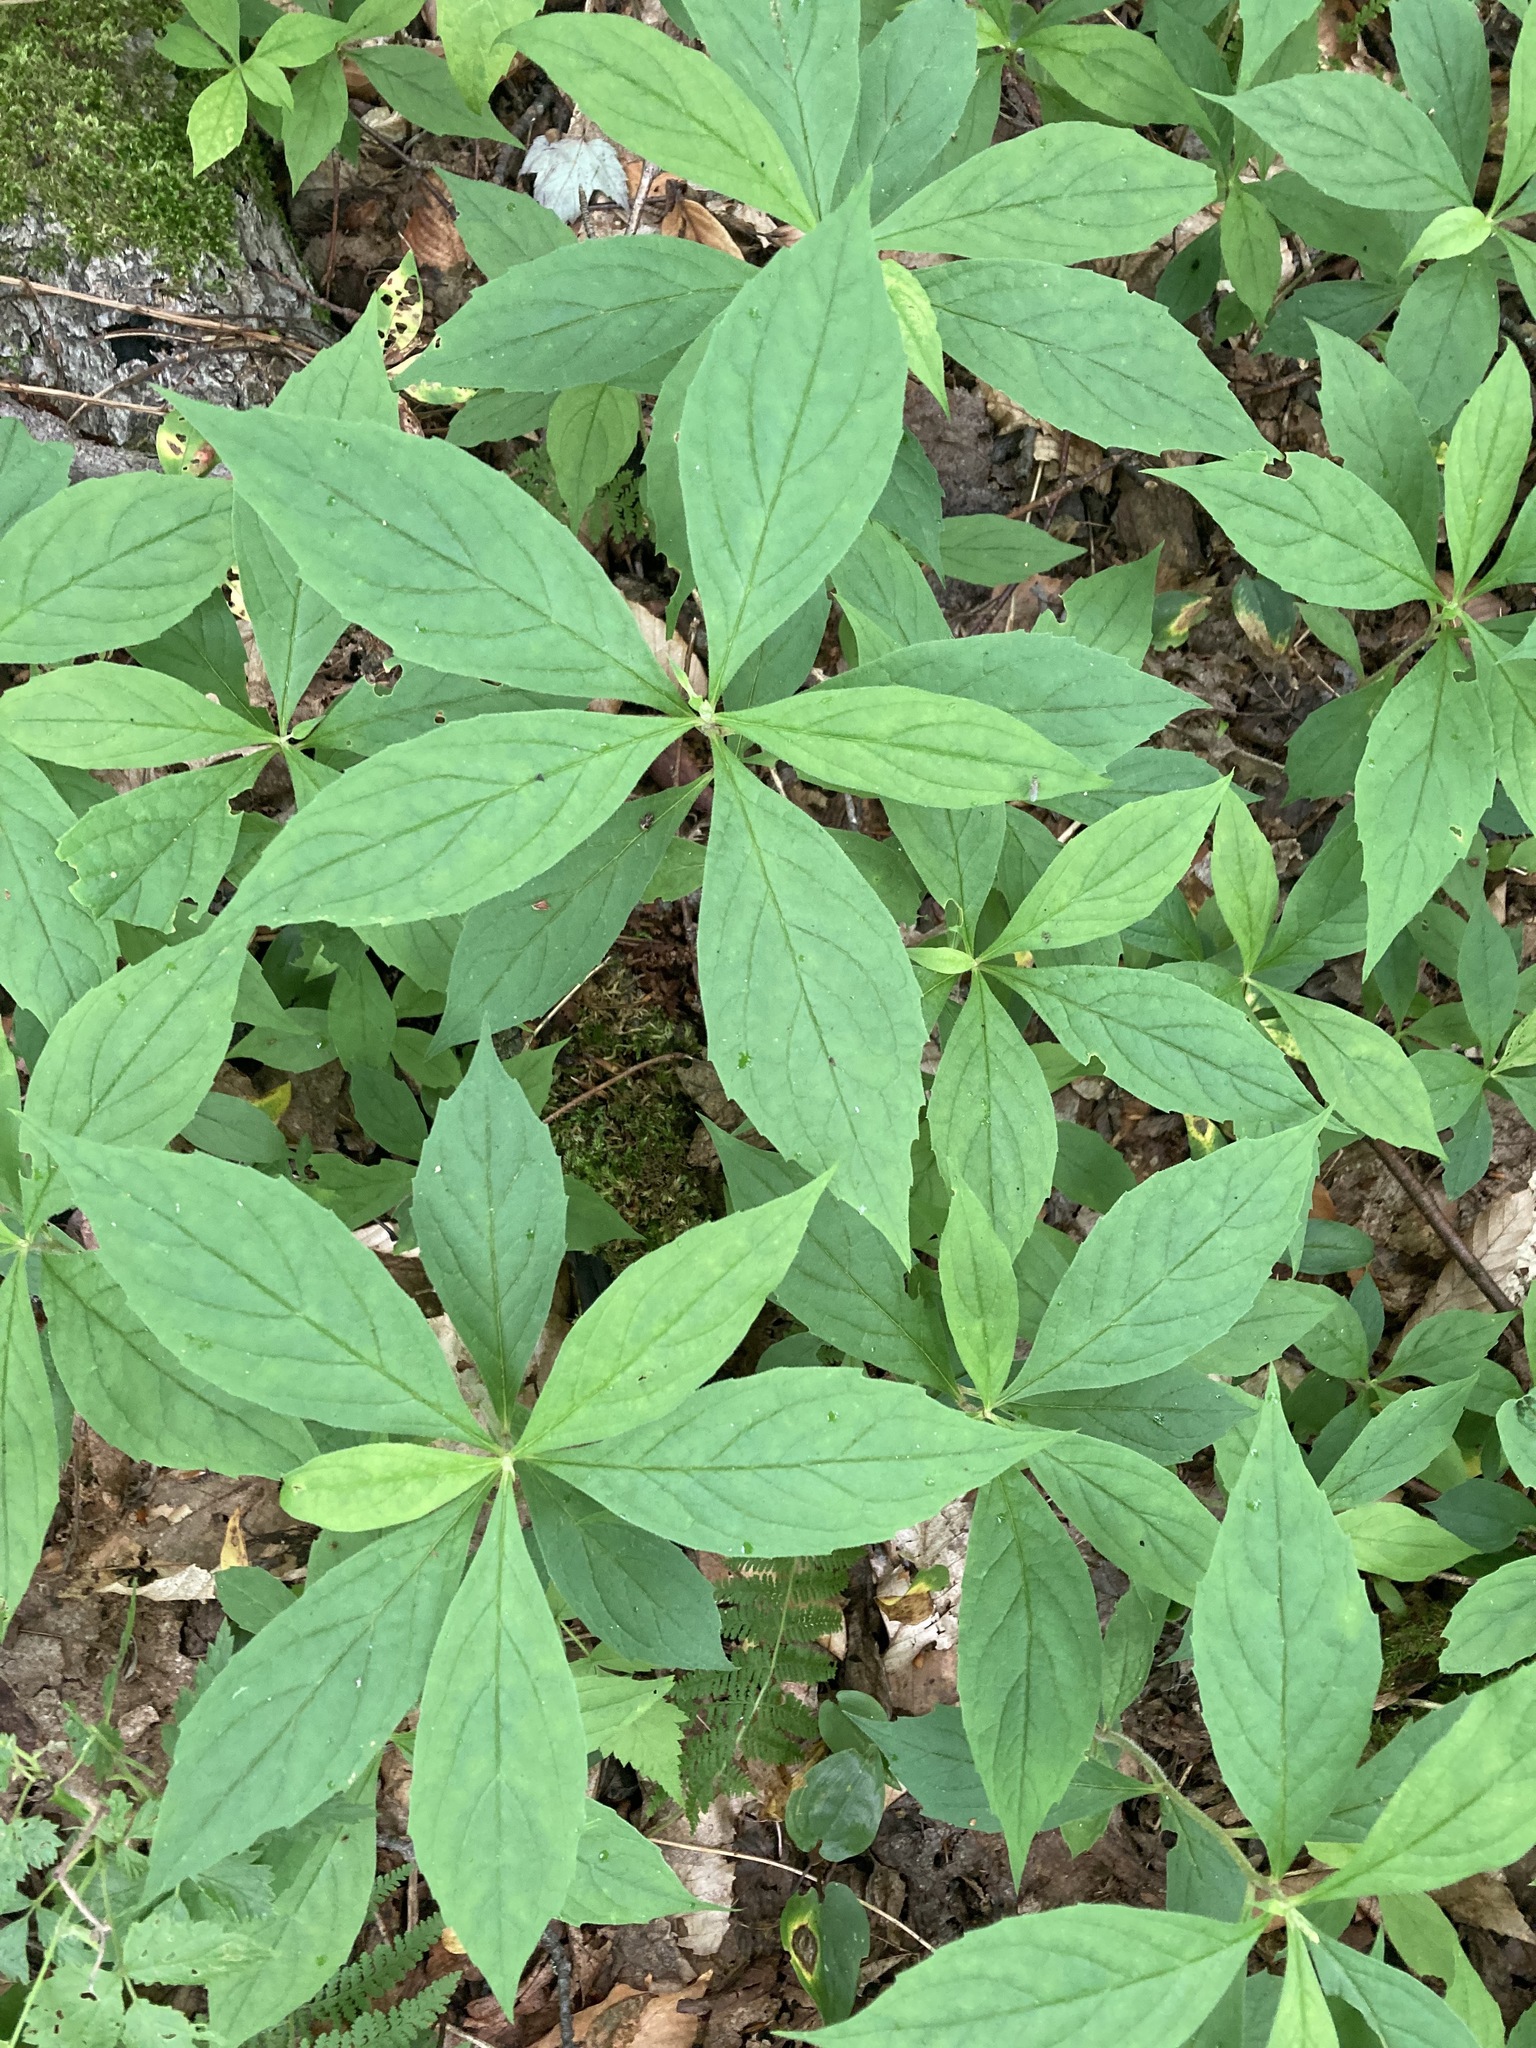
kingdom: Plantae
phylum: Tracheophyta
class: Magnoliopsida
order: Asterales
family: Asteraceae
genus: Oclemena
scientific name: Oclemena acuminata
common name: Mountain aster
